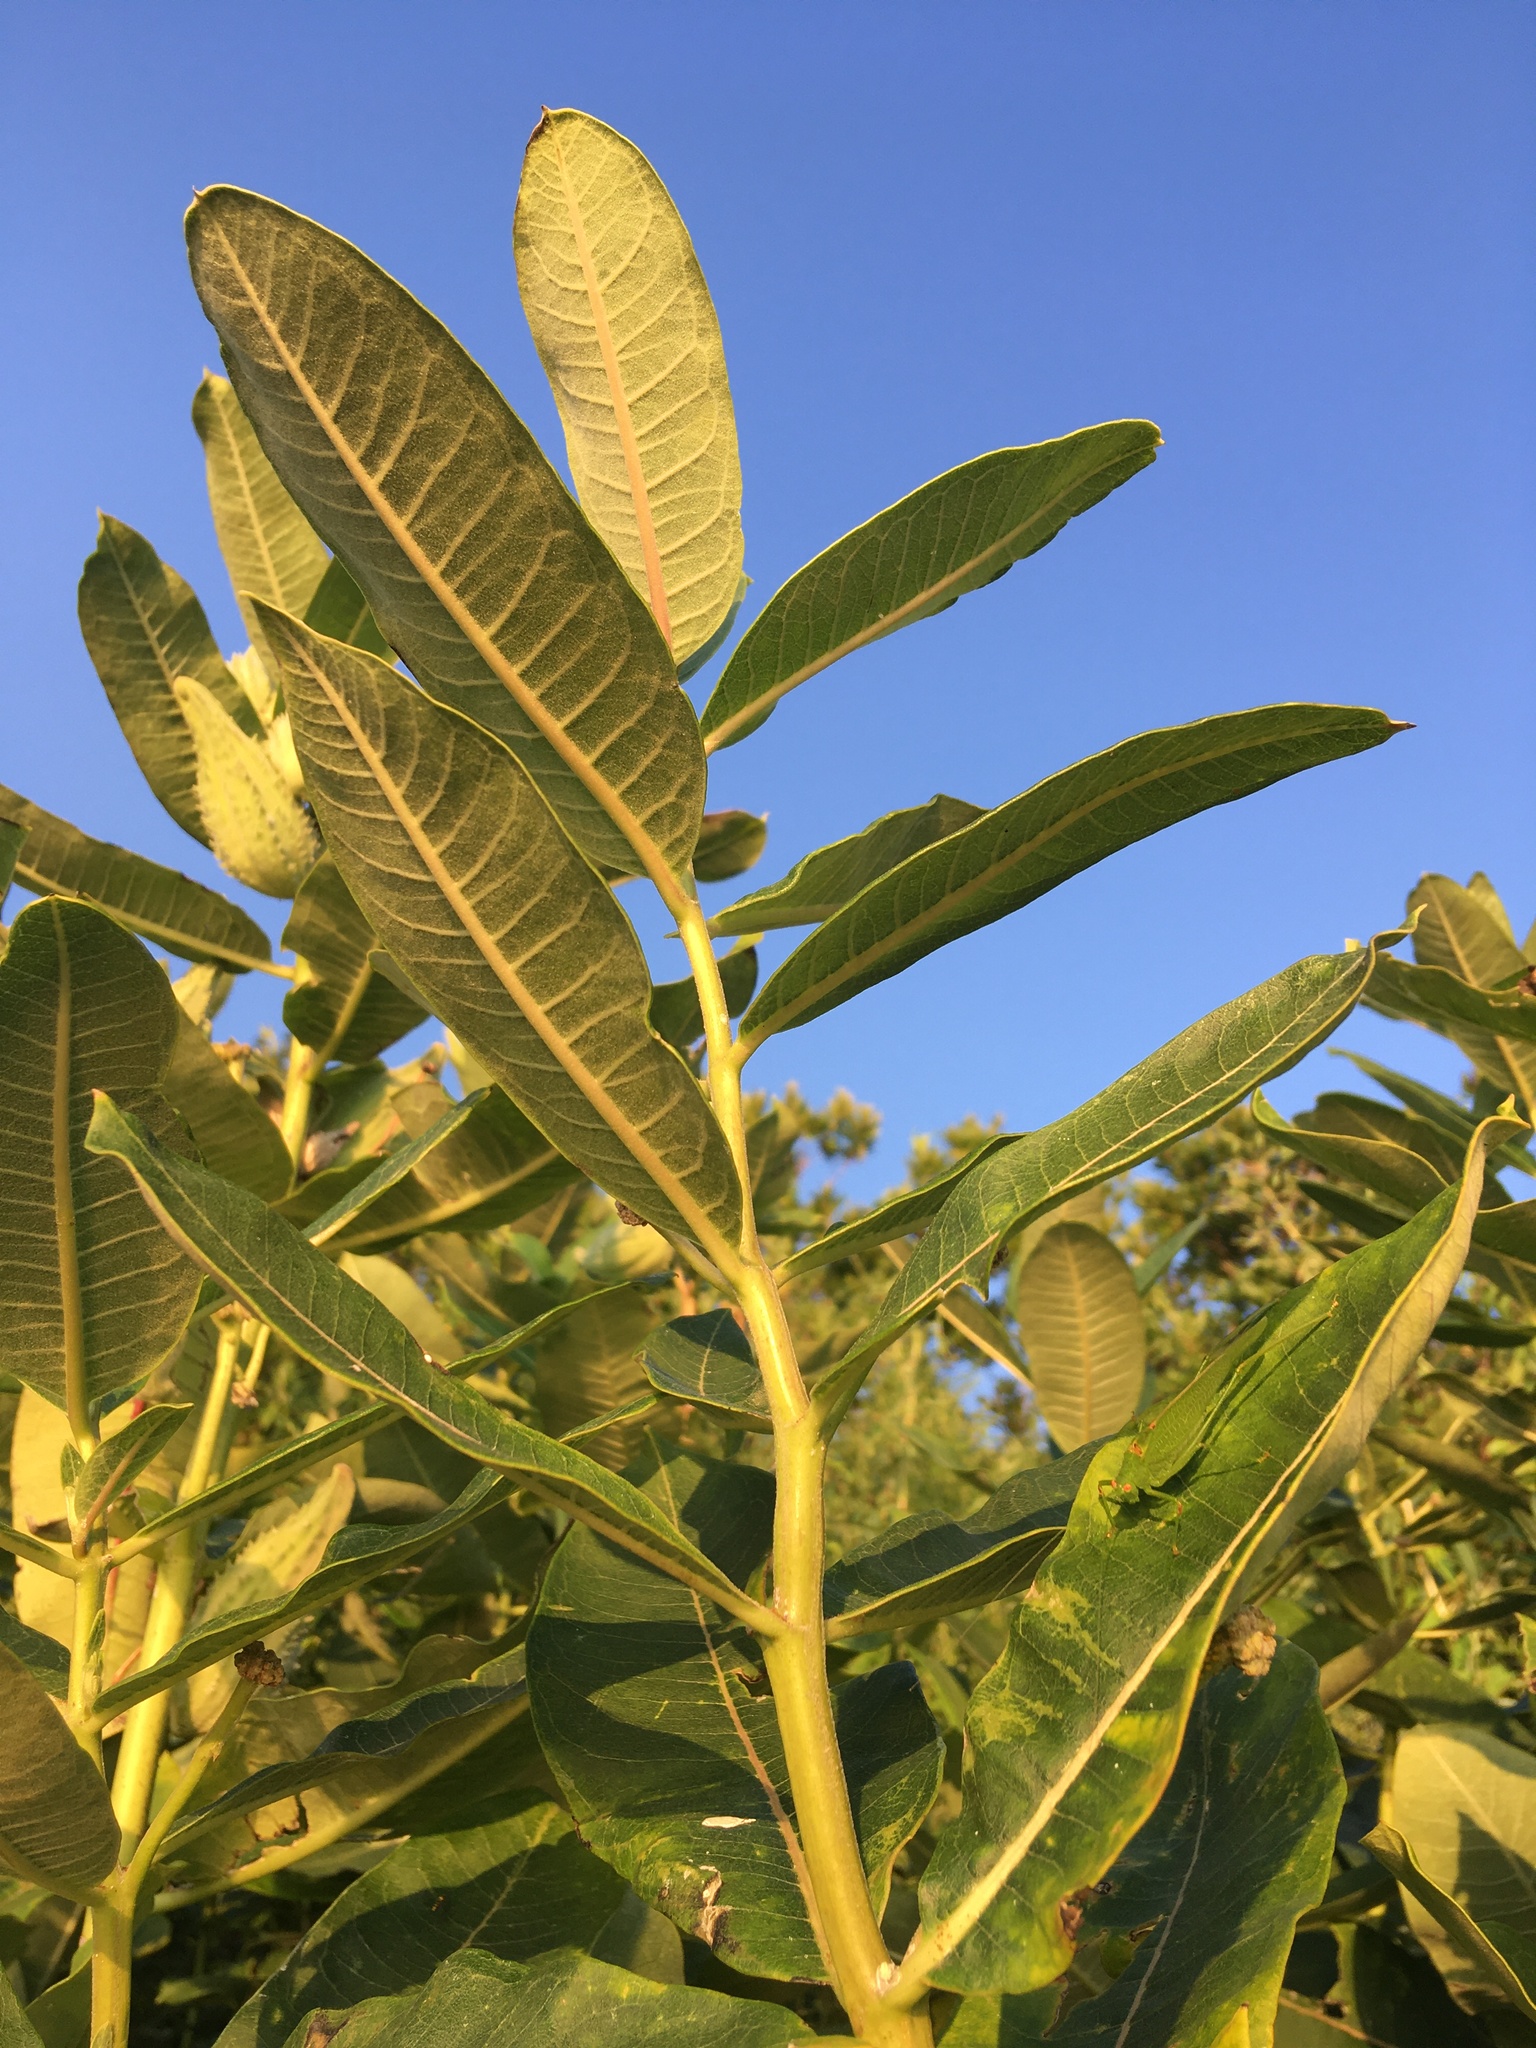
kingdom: Plantae
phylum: Tracheophyta
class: Magnoliopsida
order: Gentianales
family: Apocynaceae
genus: Asclepias
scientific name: Asclepias syriaca
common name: Common milkweed
